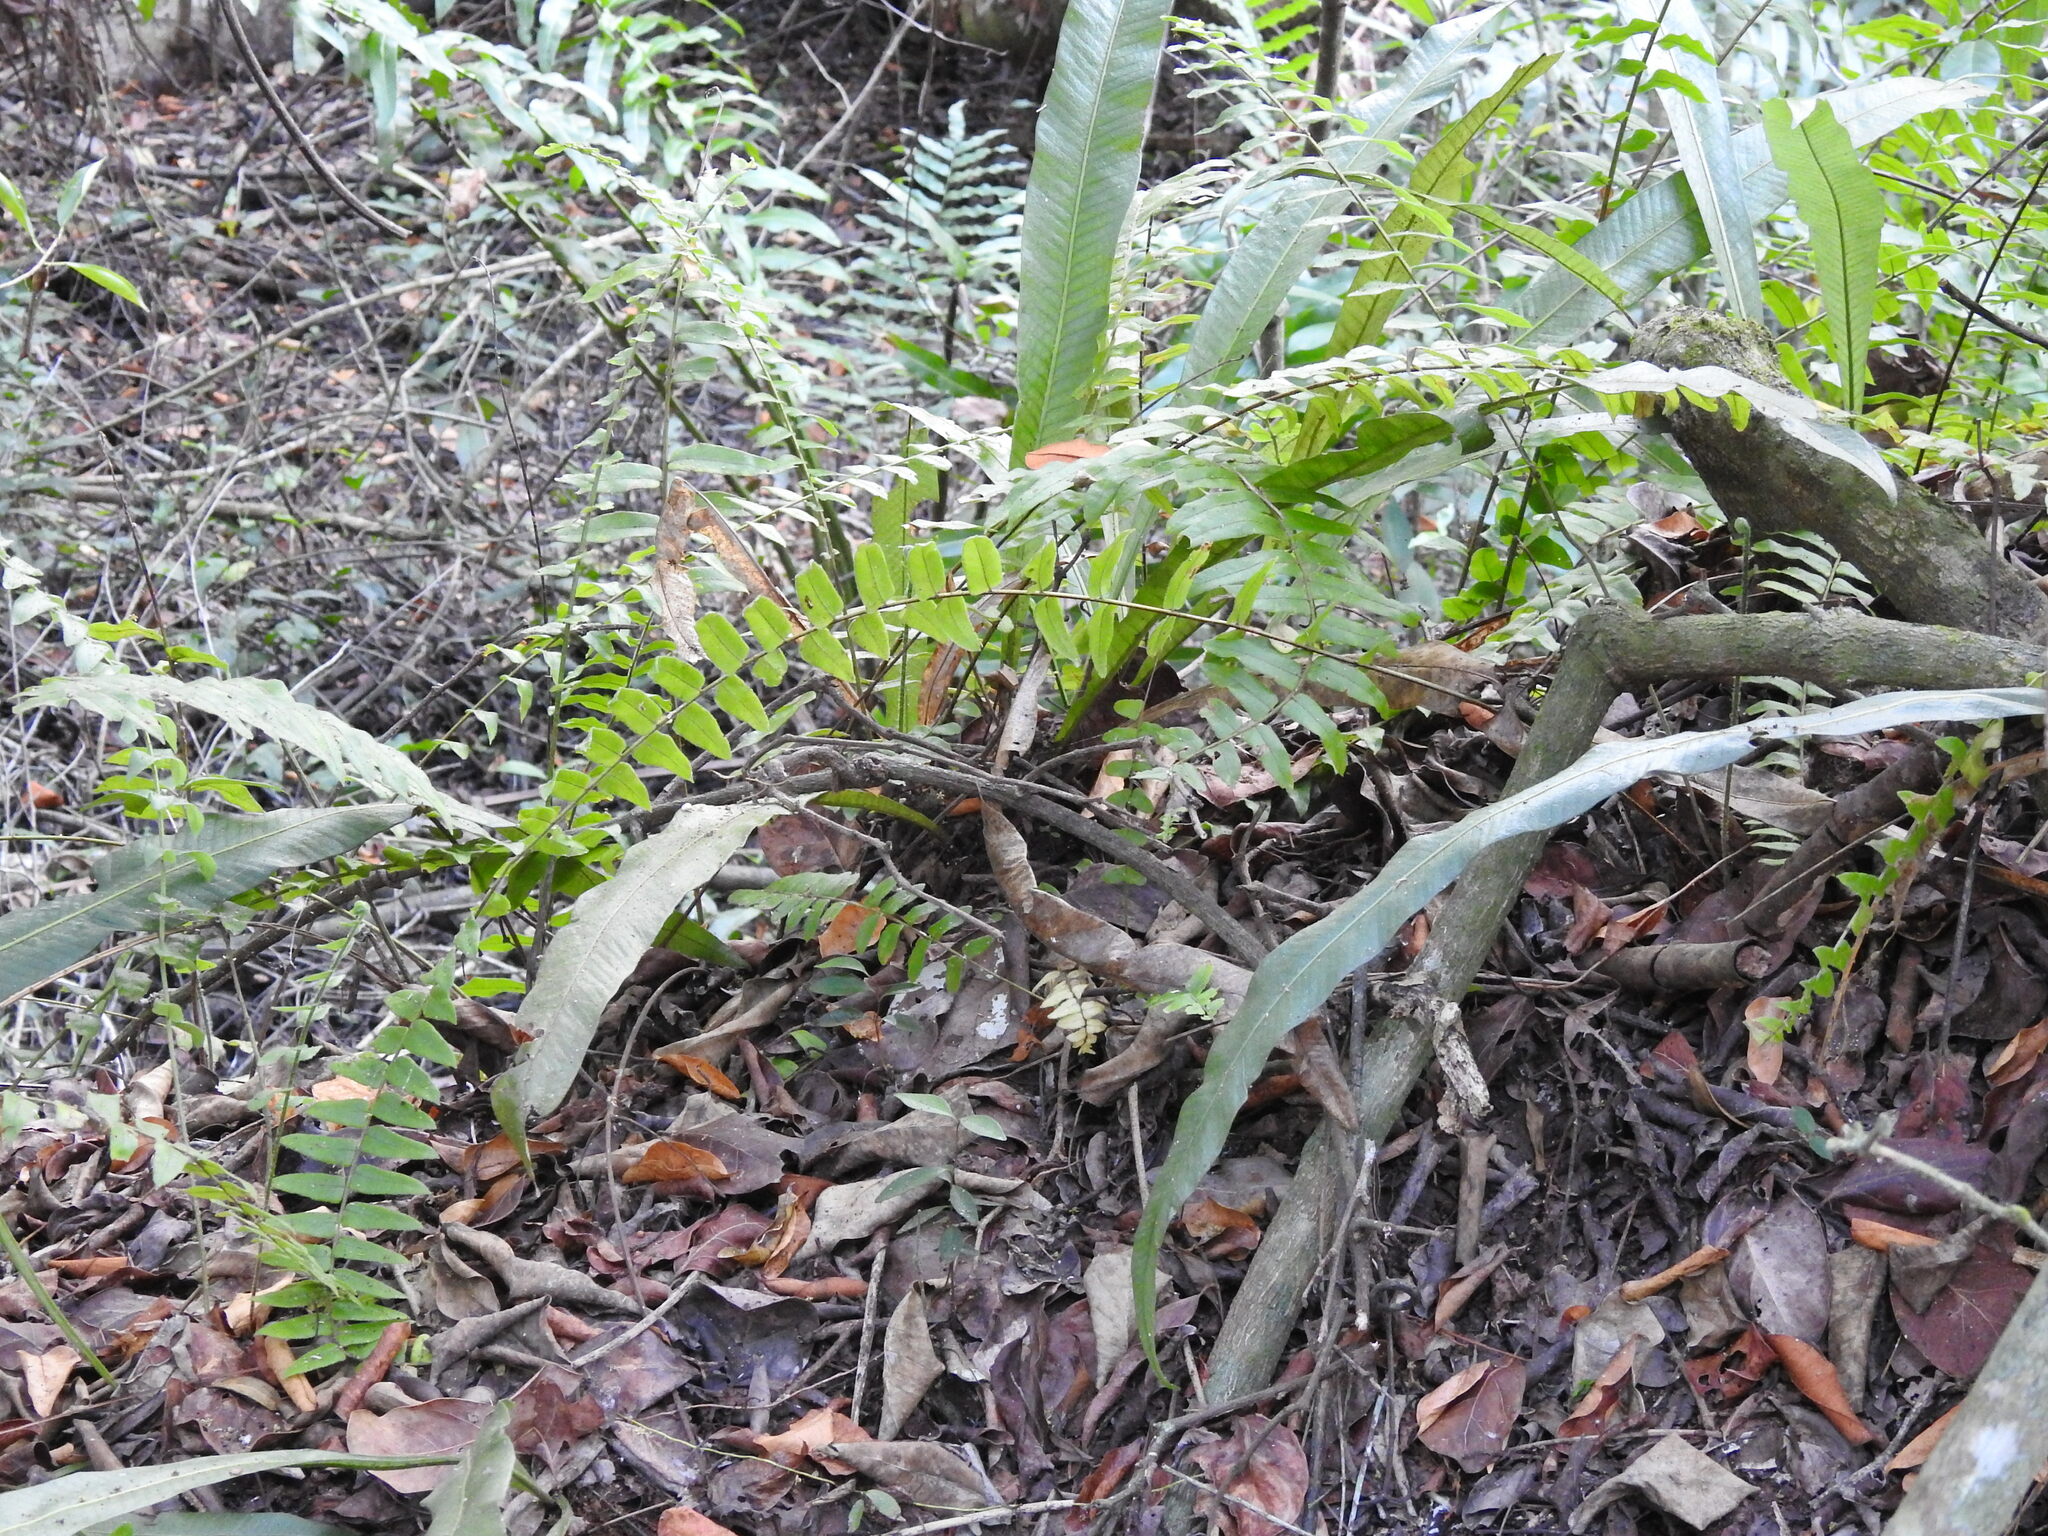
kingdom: Plantae
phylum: Tracheophyta
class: Polypodiopsida
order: Polypodiales
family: Polypodiaceae
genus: Campyloneurum
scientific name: Campyloneurum phyllitidis
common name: Cow-tongue fern
